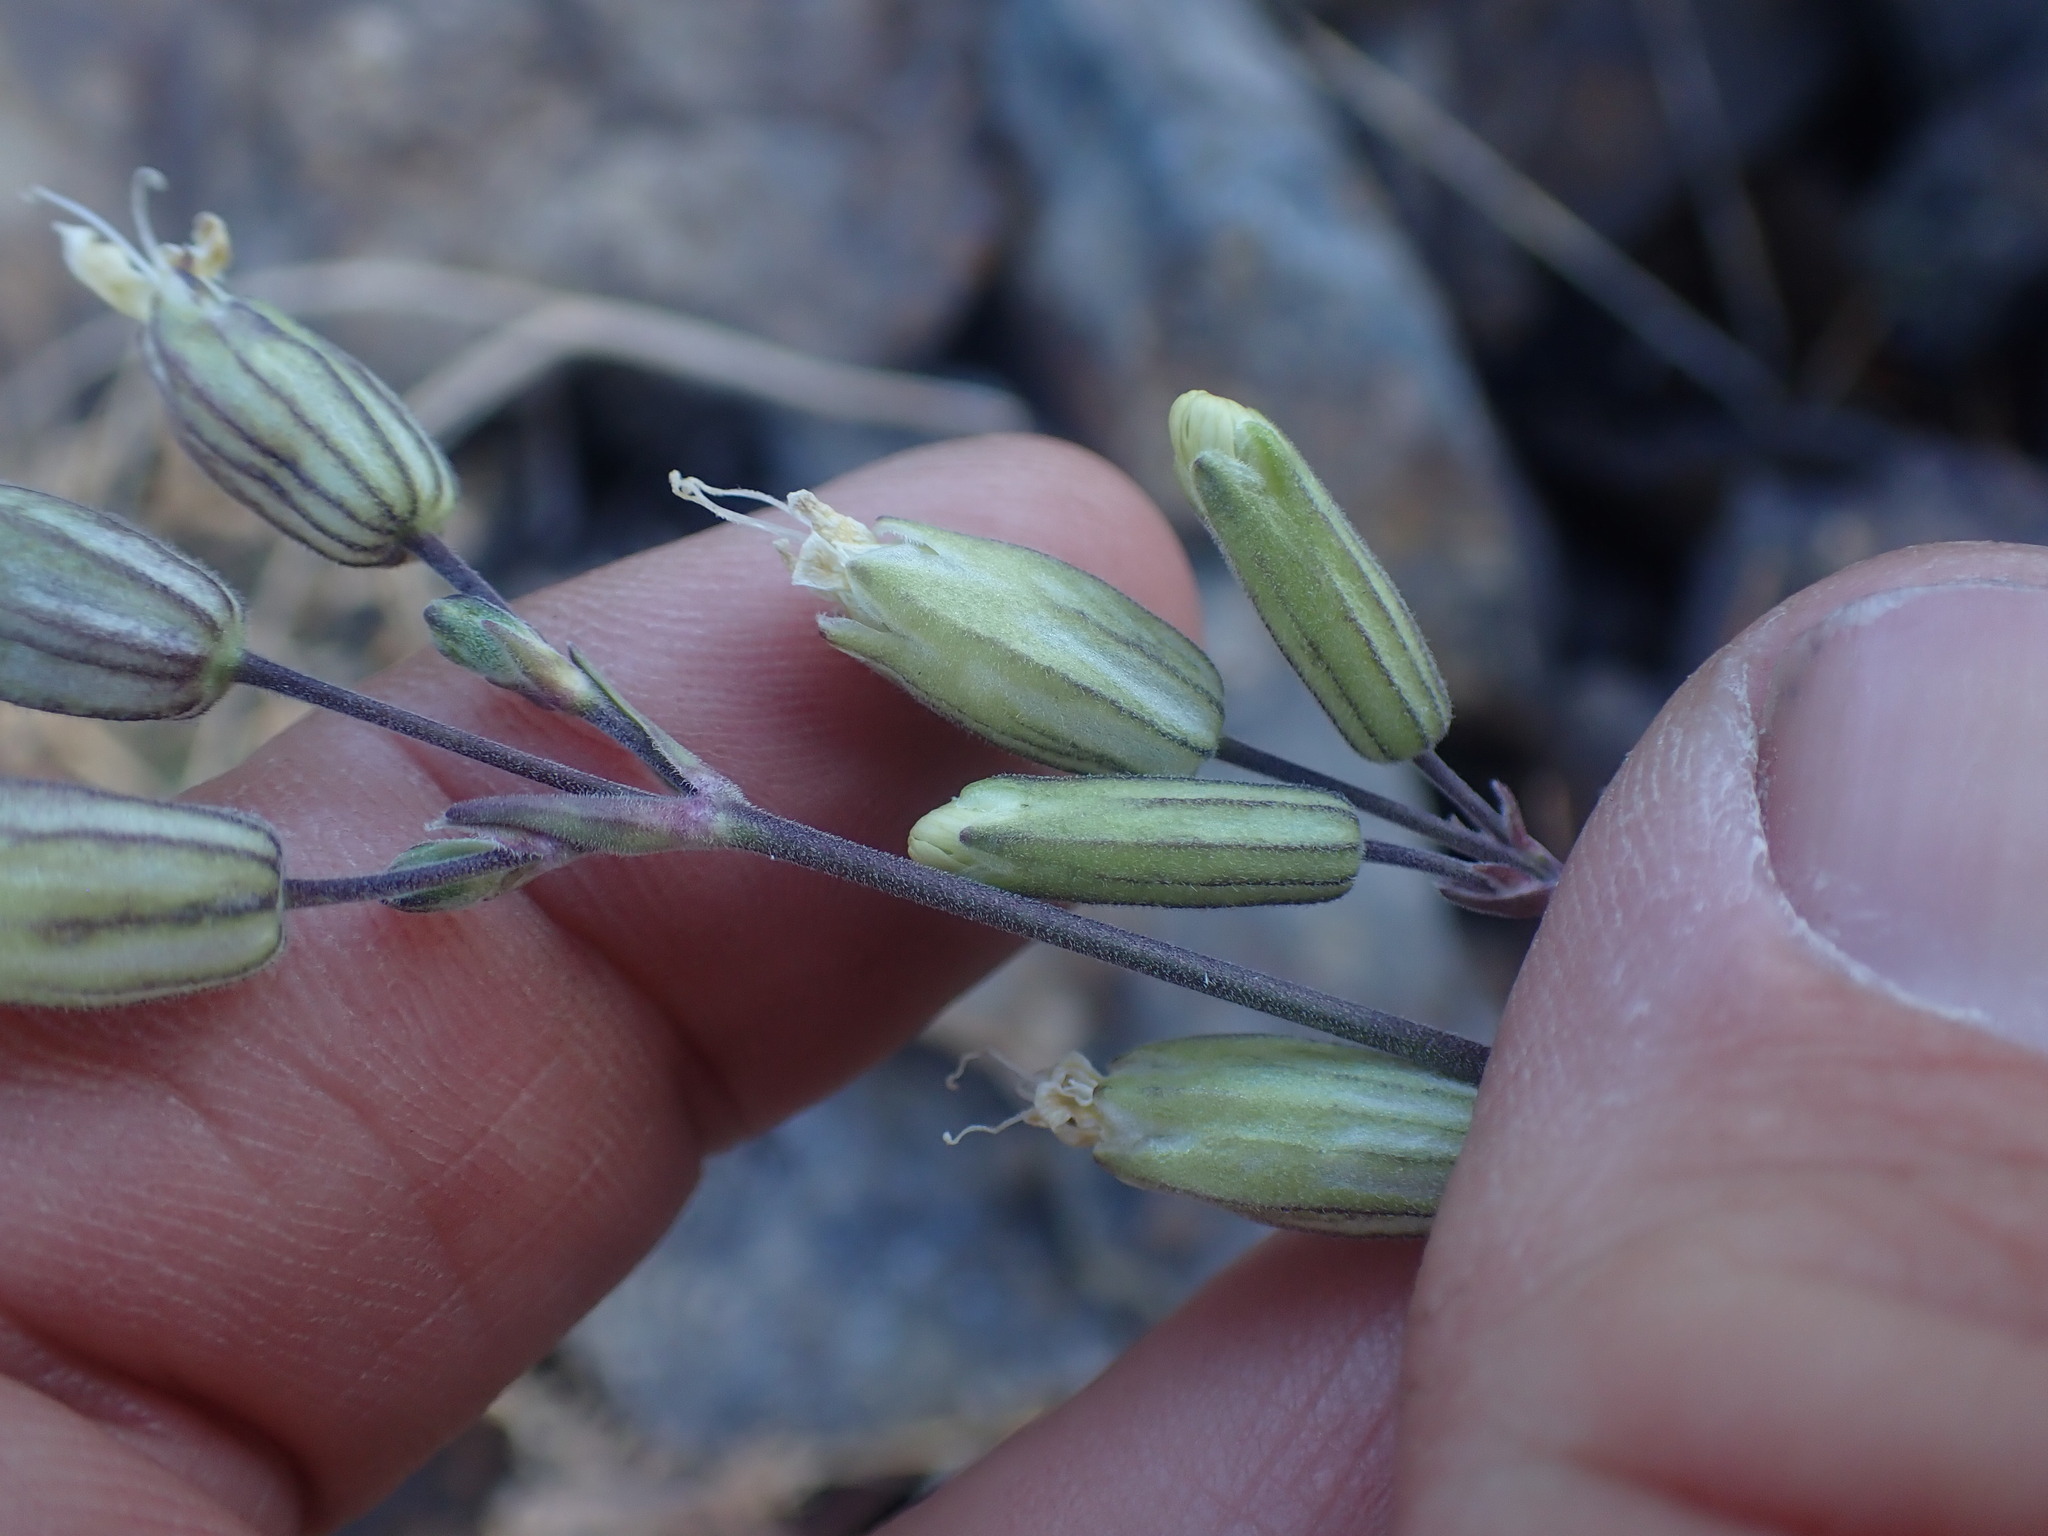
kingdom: Plantae
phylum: Tracheophyta
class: Magnoliopsida
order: Caryophyllales
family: Caryophyllaceae
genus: Silene
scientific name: Silene douglasii
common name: Douglas's catchfly
